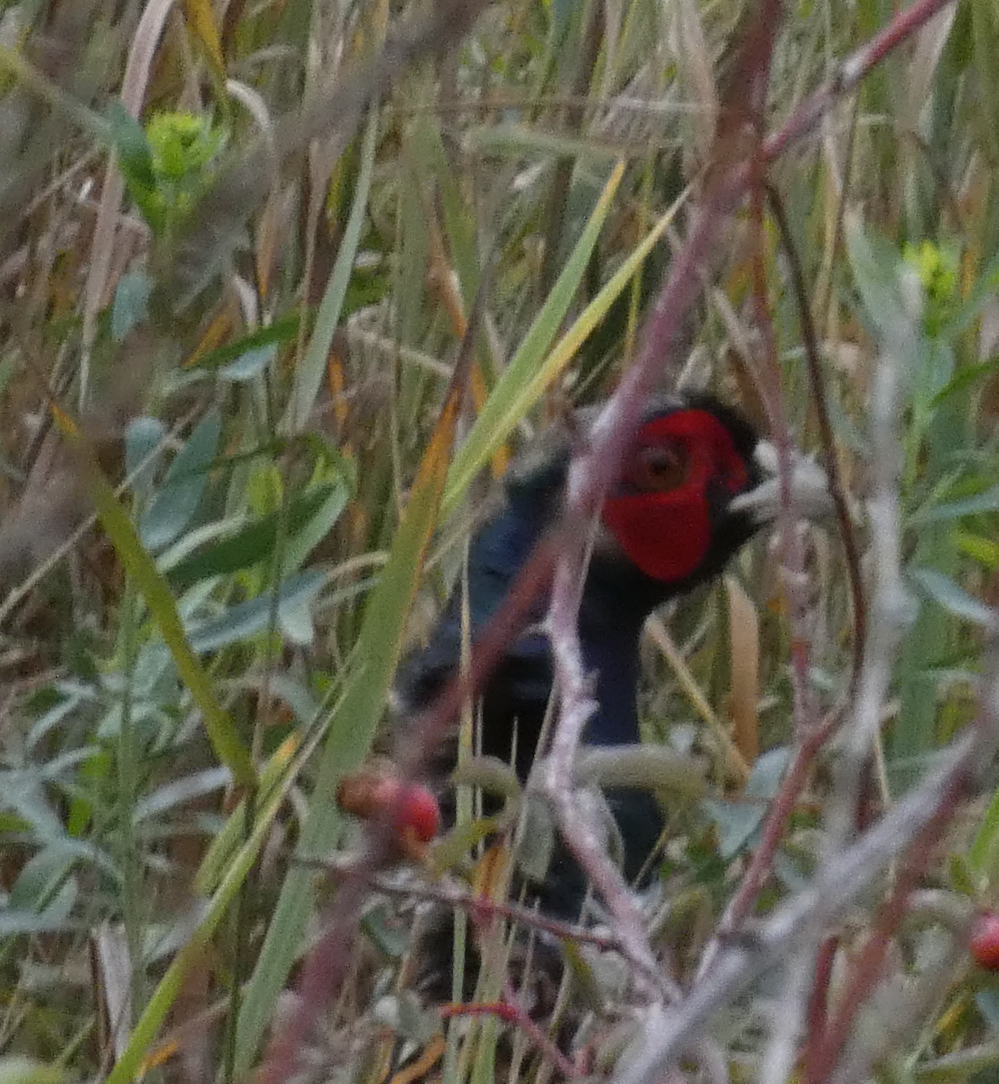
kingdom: Animalia
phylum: Chordata
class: Aves
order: Galliformes
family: Phasianidae
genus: Phasianus
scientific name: Phasianus colchicus
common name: Common pheasant
